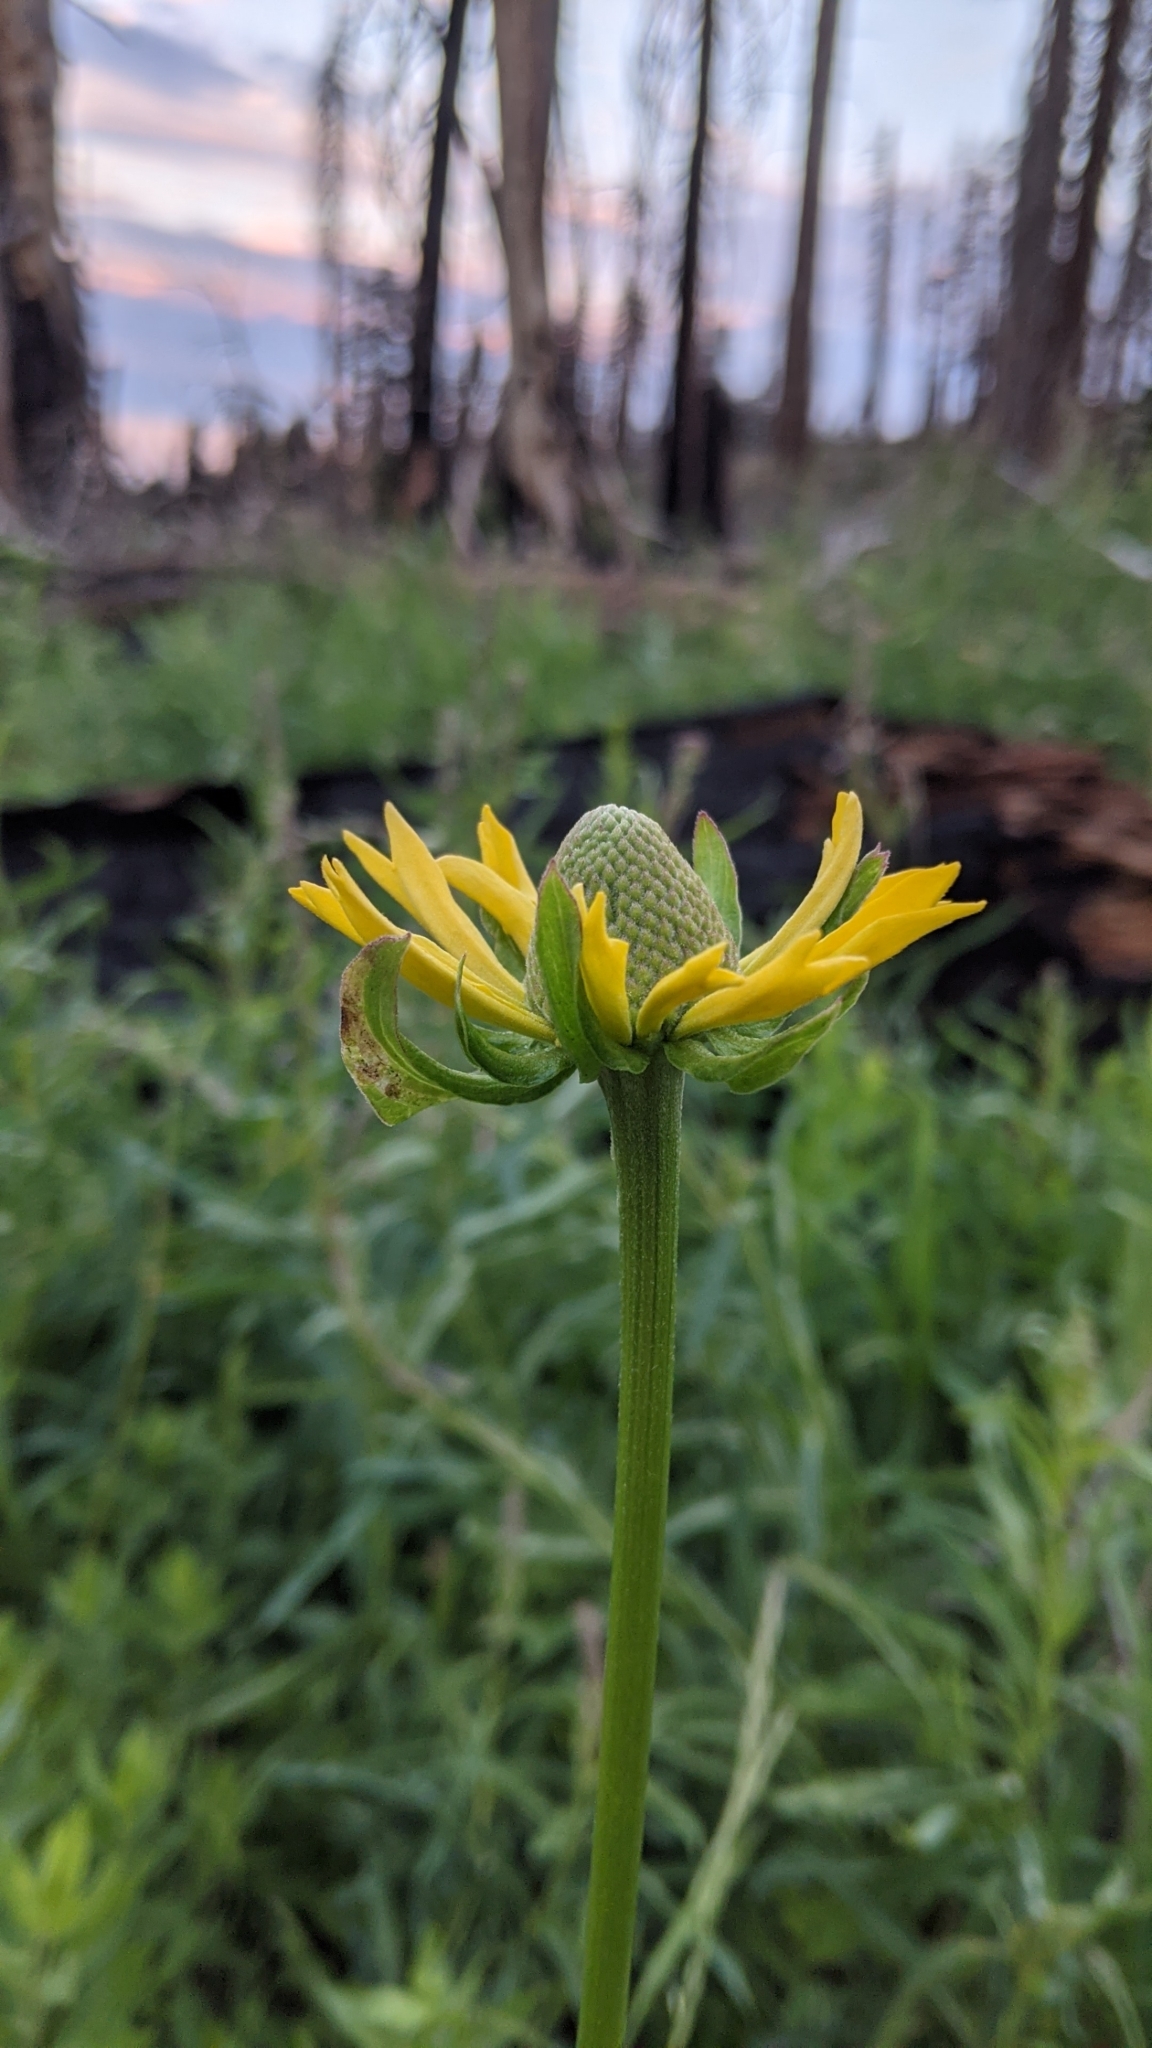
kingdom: Plantae
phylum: Tracheophyta
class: Magnoliopsida
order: Asterales
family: Asteraceae
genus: Rudbeckia
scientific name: Rudbeckia californica
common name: California coneflower
